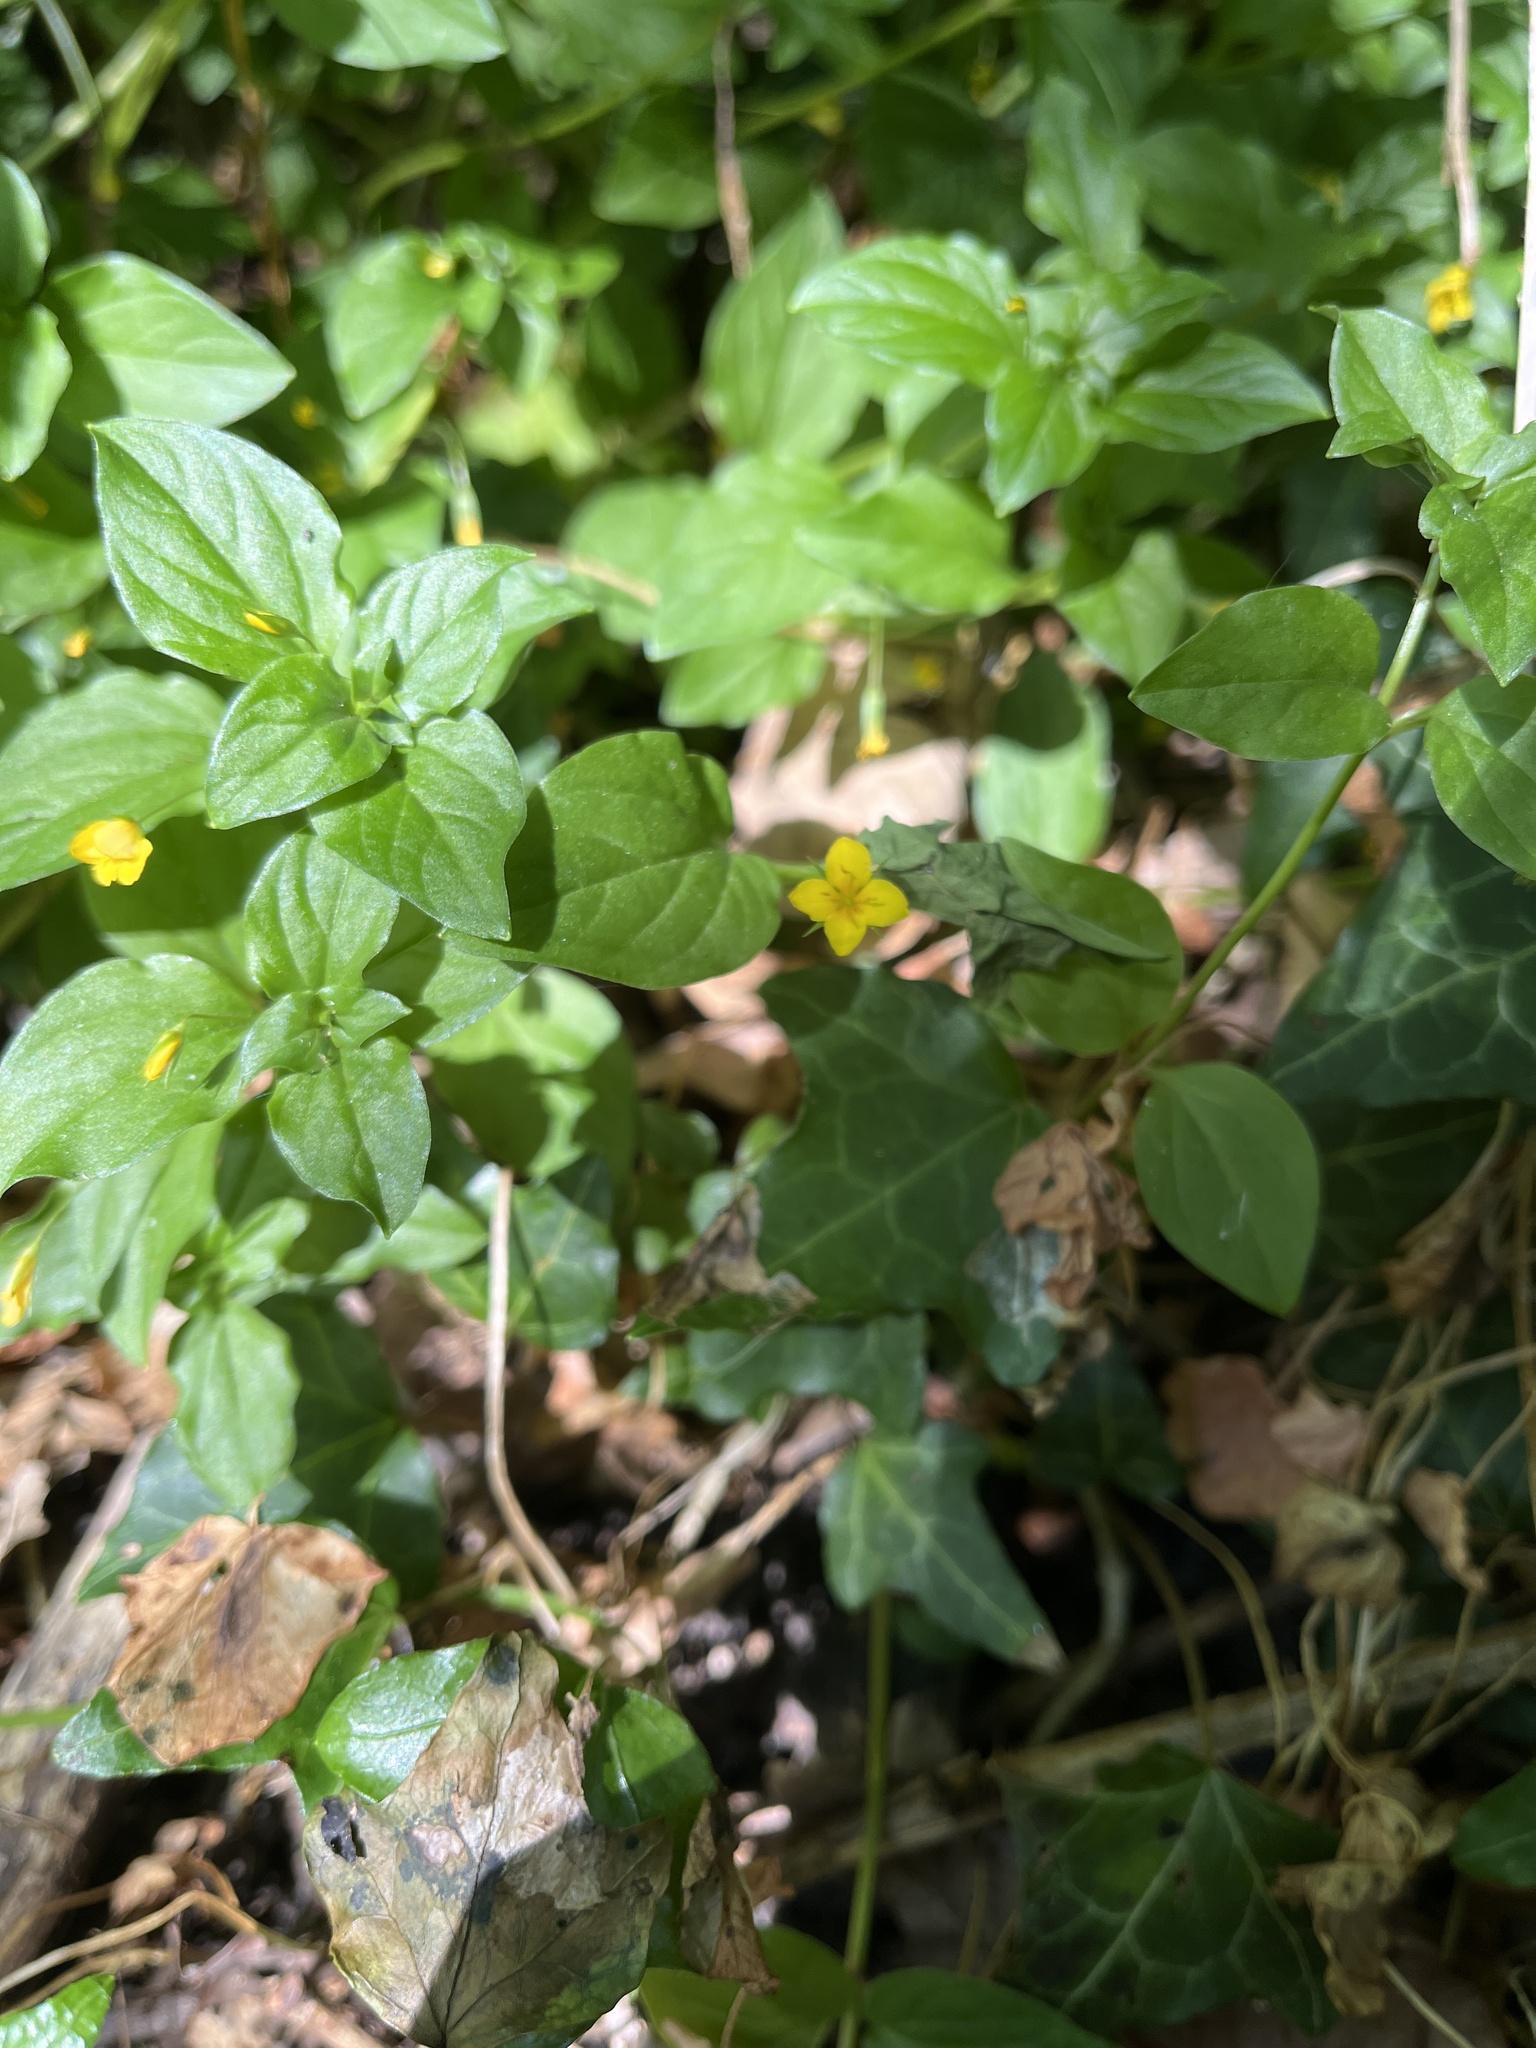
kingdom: Plantae
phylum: Tracheophyta
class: Magnoliopsida
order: Ericales
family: Primulaceae
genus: Lysimachia
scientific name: Lysimachia nemorum
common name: Yellow pimpernel
